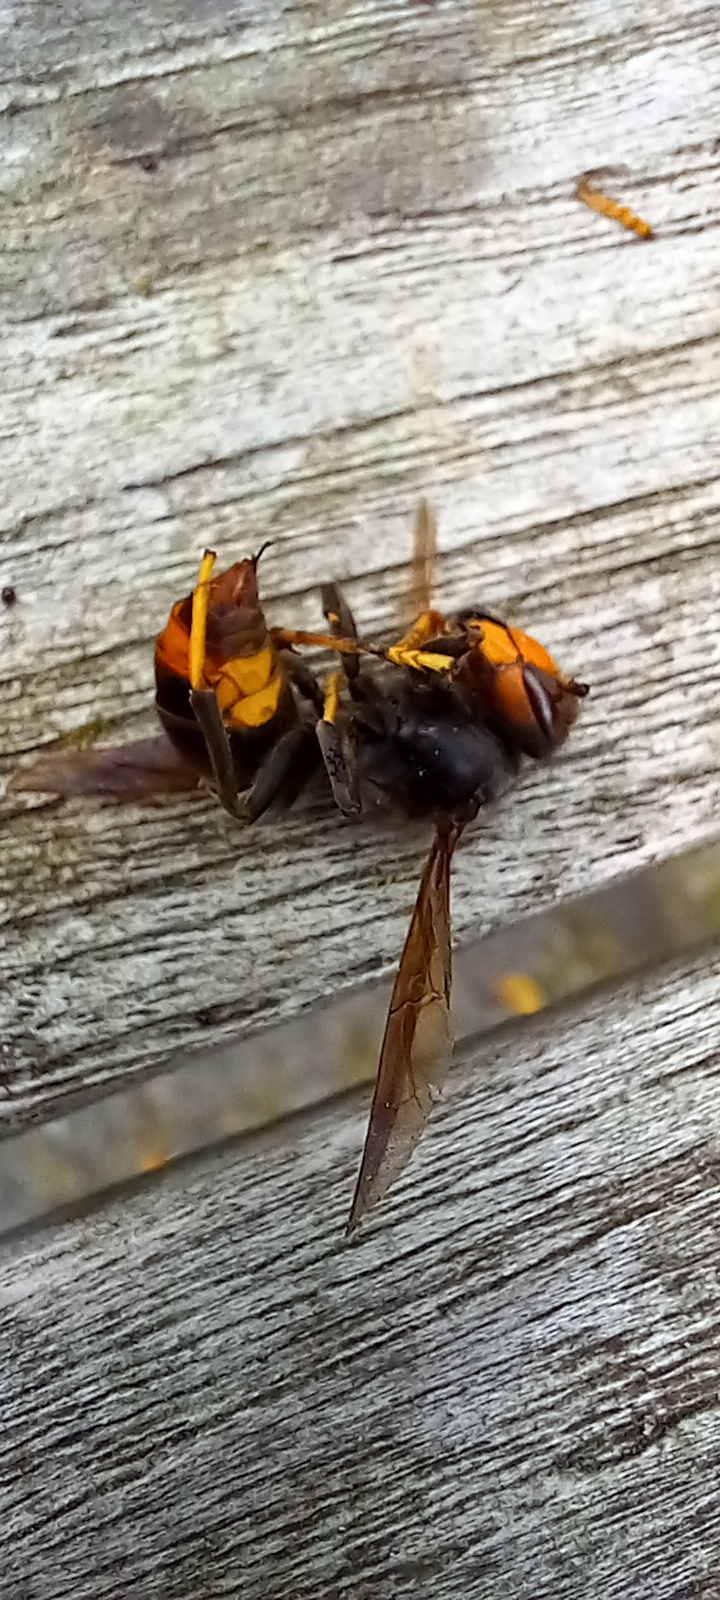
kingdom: Animalia
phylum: Arthropoda
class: Insecta
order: Hymenoptera
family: Vespidae
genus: Vespa
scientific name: Vespa velutina
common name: Asian hornet
